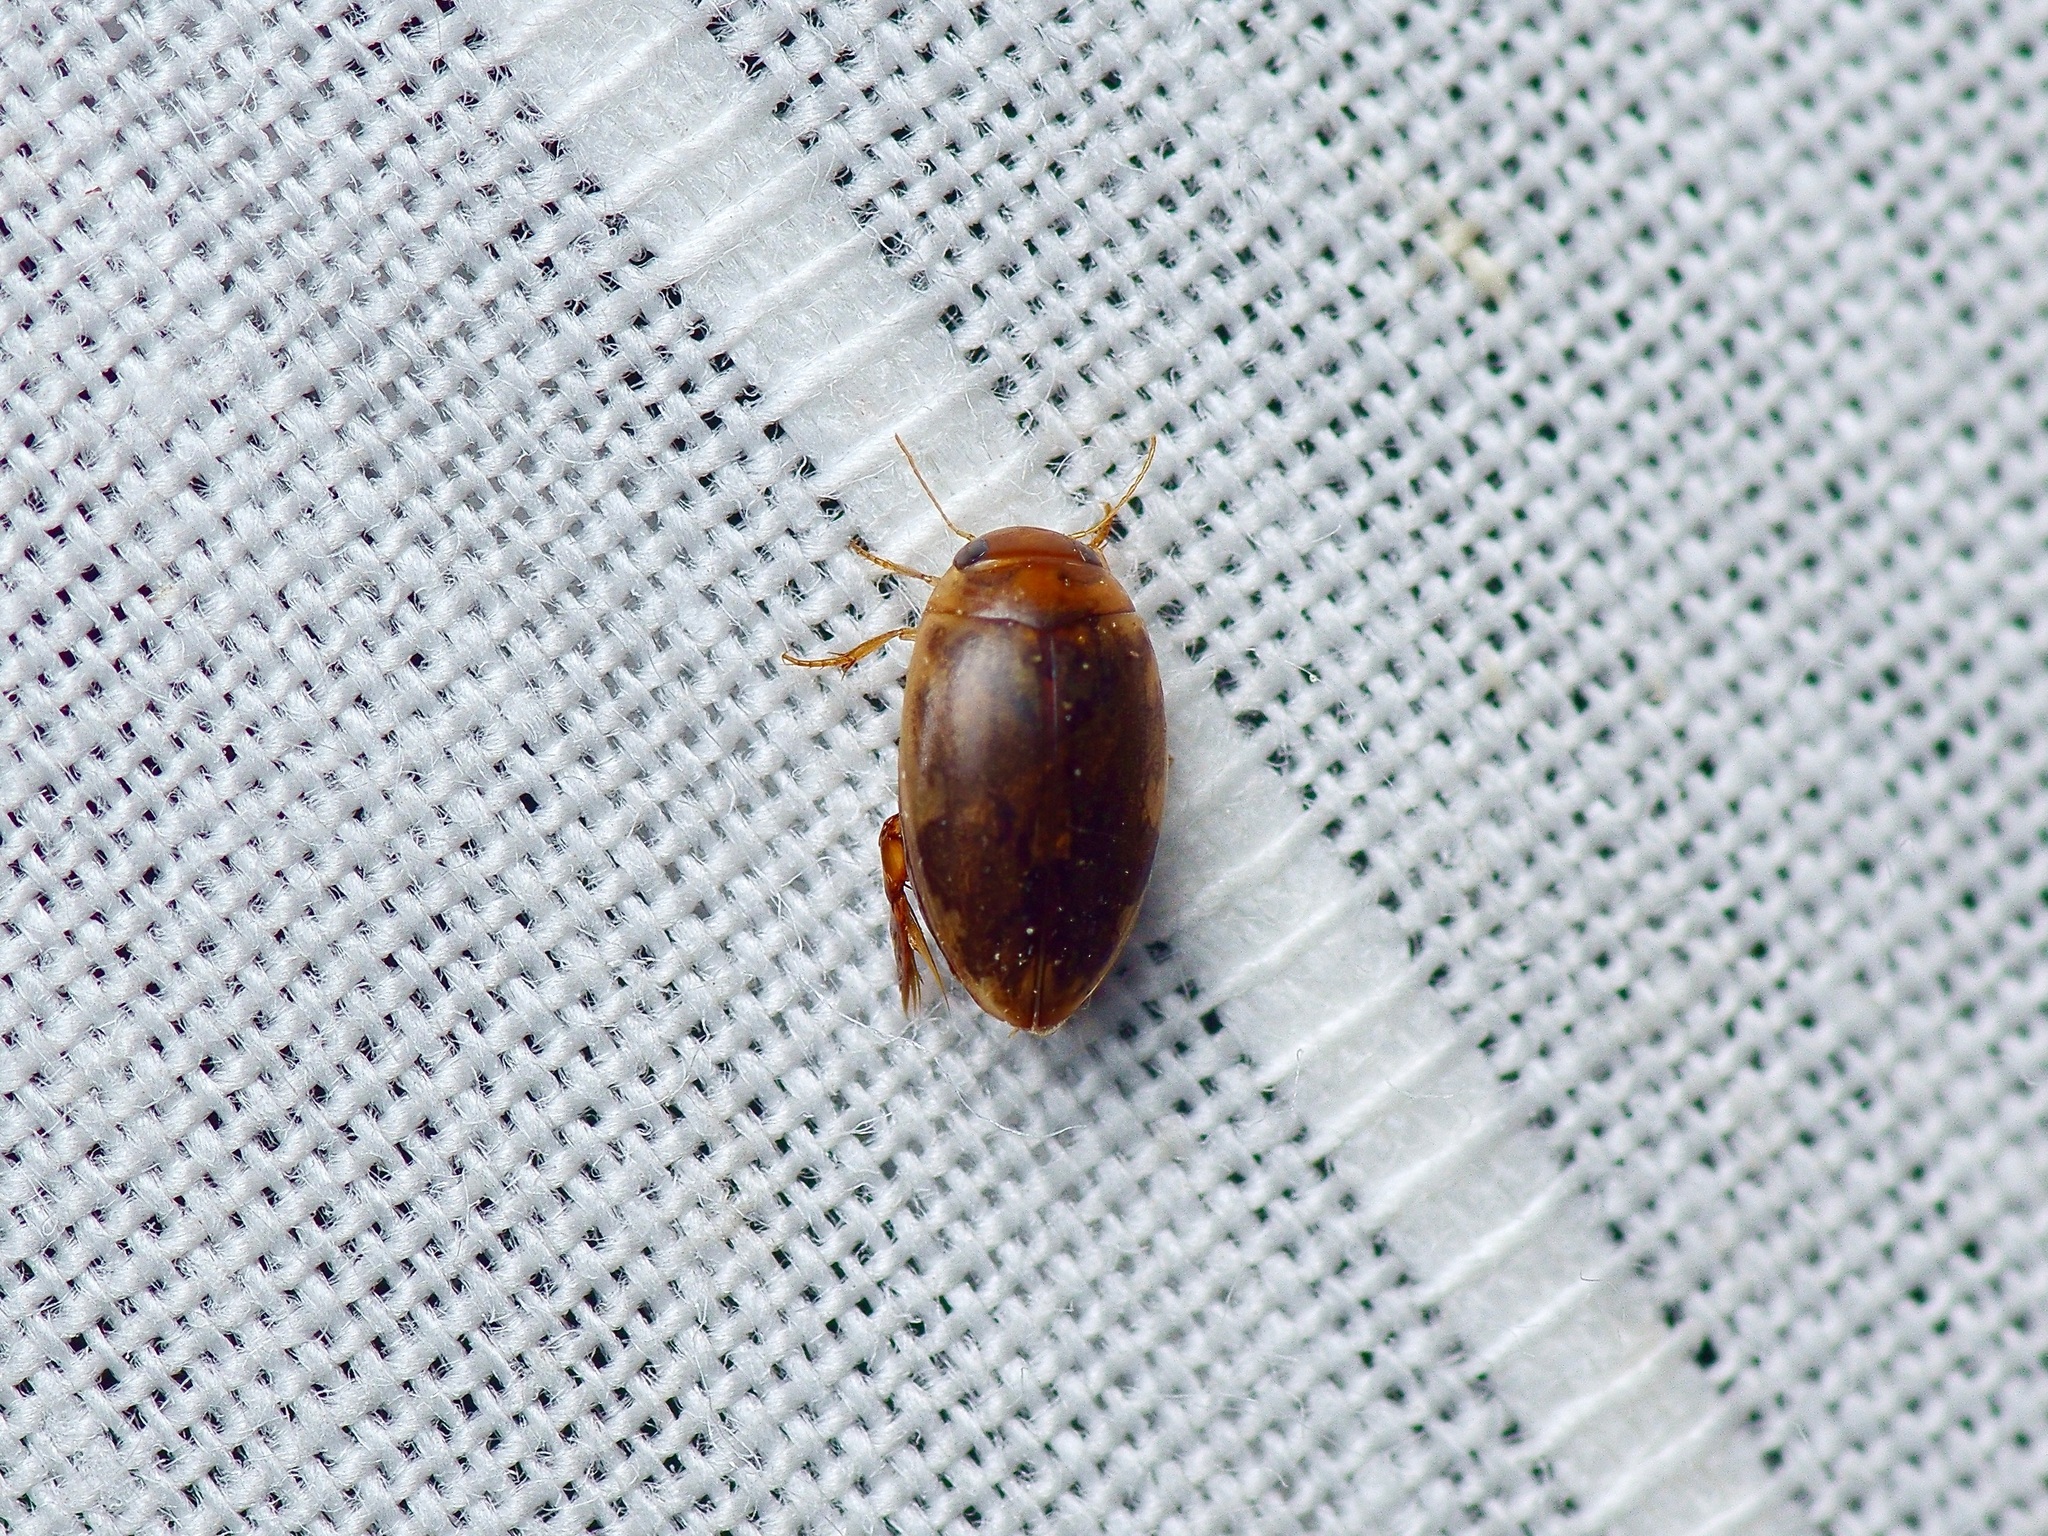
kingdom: Animalia
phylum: Arthropoda
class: Insecta
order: Coleoptera
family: Dytiscidae
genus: Laccophilus
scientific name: Laccophilus proximus
